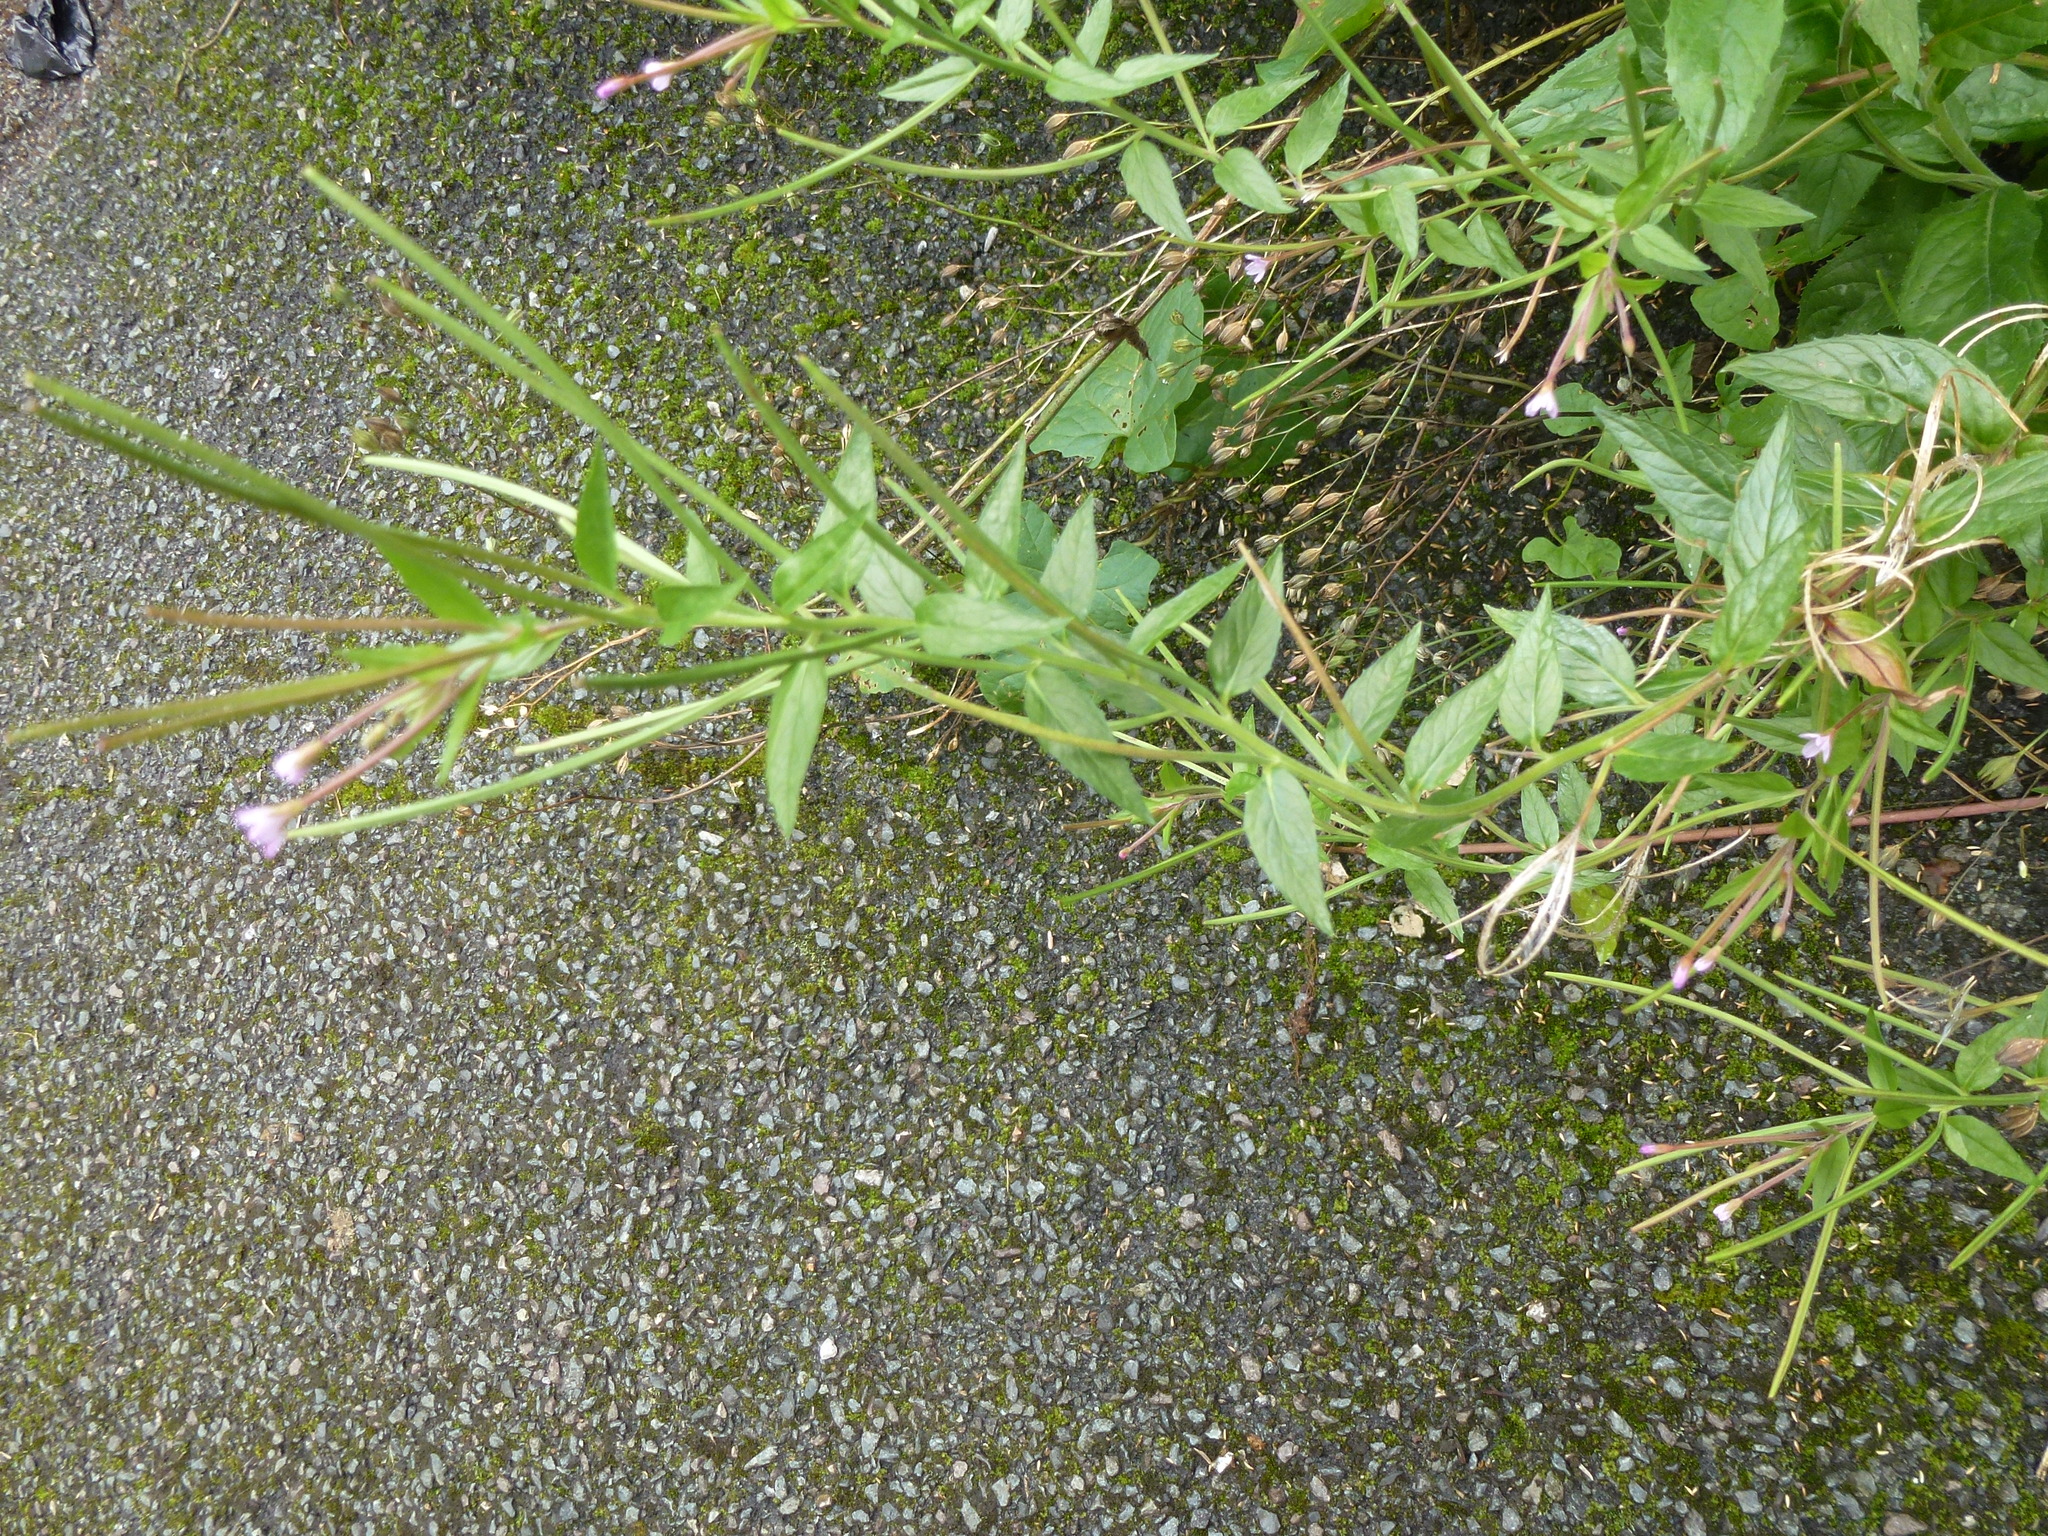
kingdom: Plantae
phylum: Tracheophyta
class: Magnoliopsida
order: Myrtales
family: Onagraceae
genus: Epilobium
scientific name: Epilobium ciliatum
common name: American willowherb
